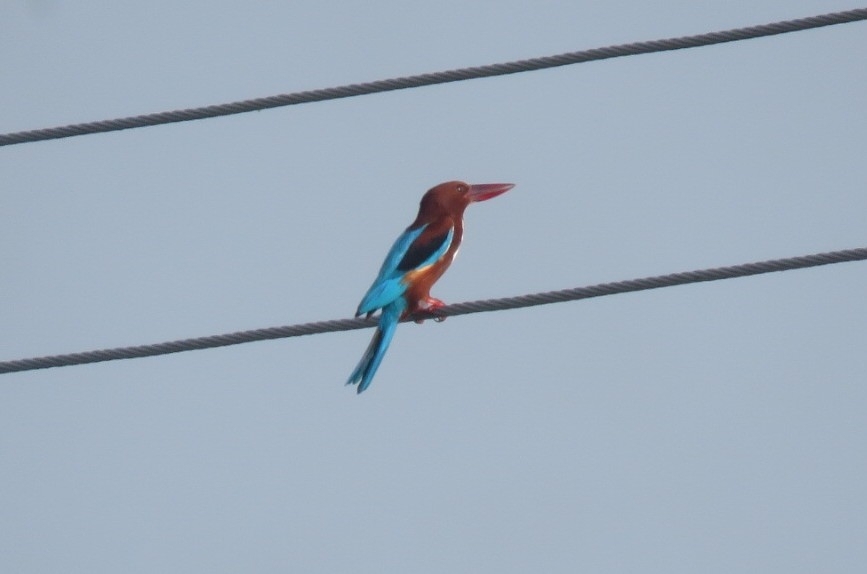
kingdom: Animalia
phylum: Chordata
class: Aves
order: Coraciiformes
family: Alcedinidae
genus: Halcyon
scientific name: Halcyon smyrnensis
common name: White-throated kingfisher
